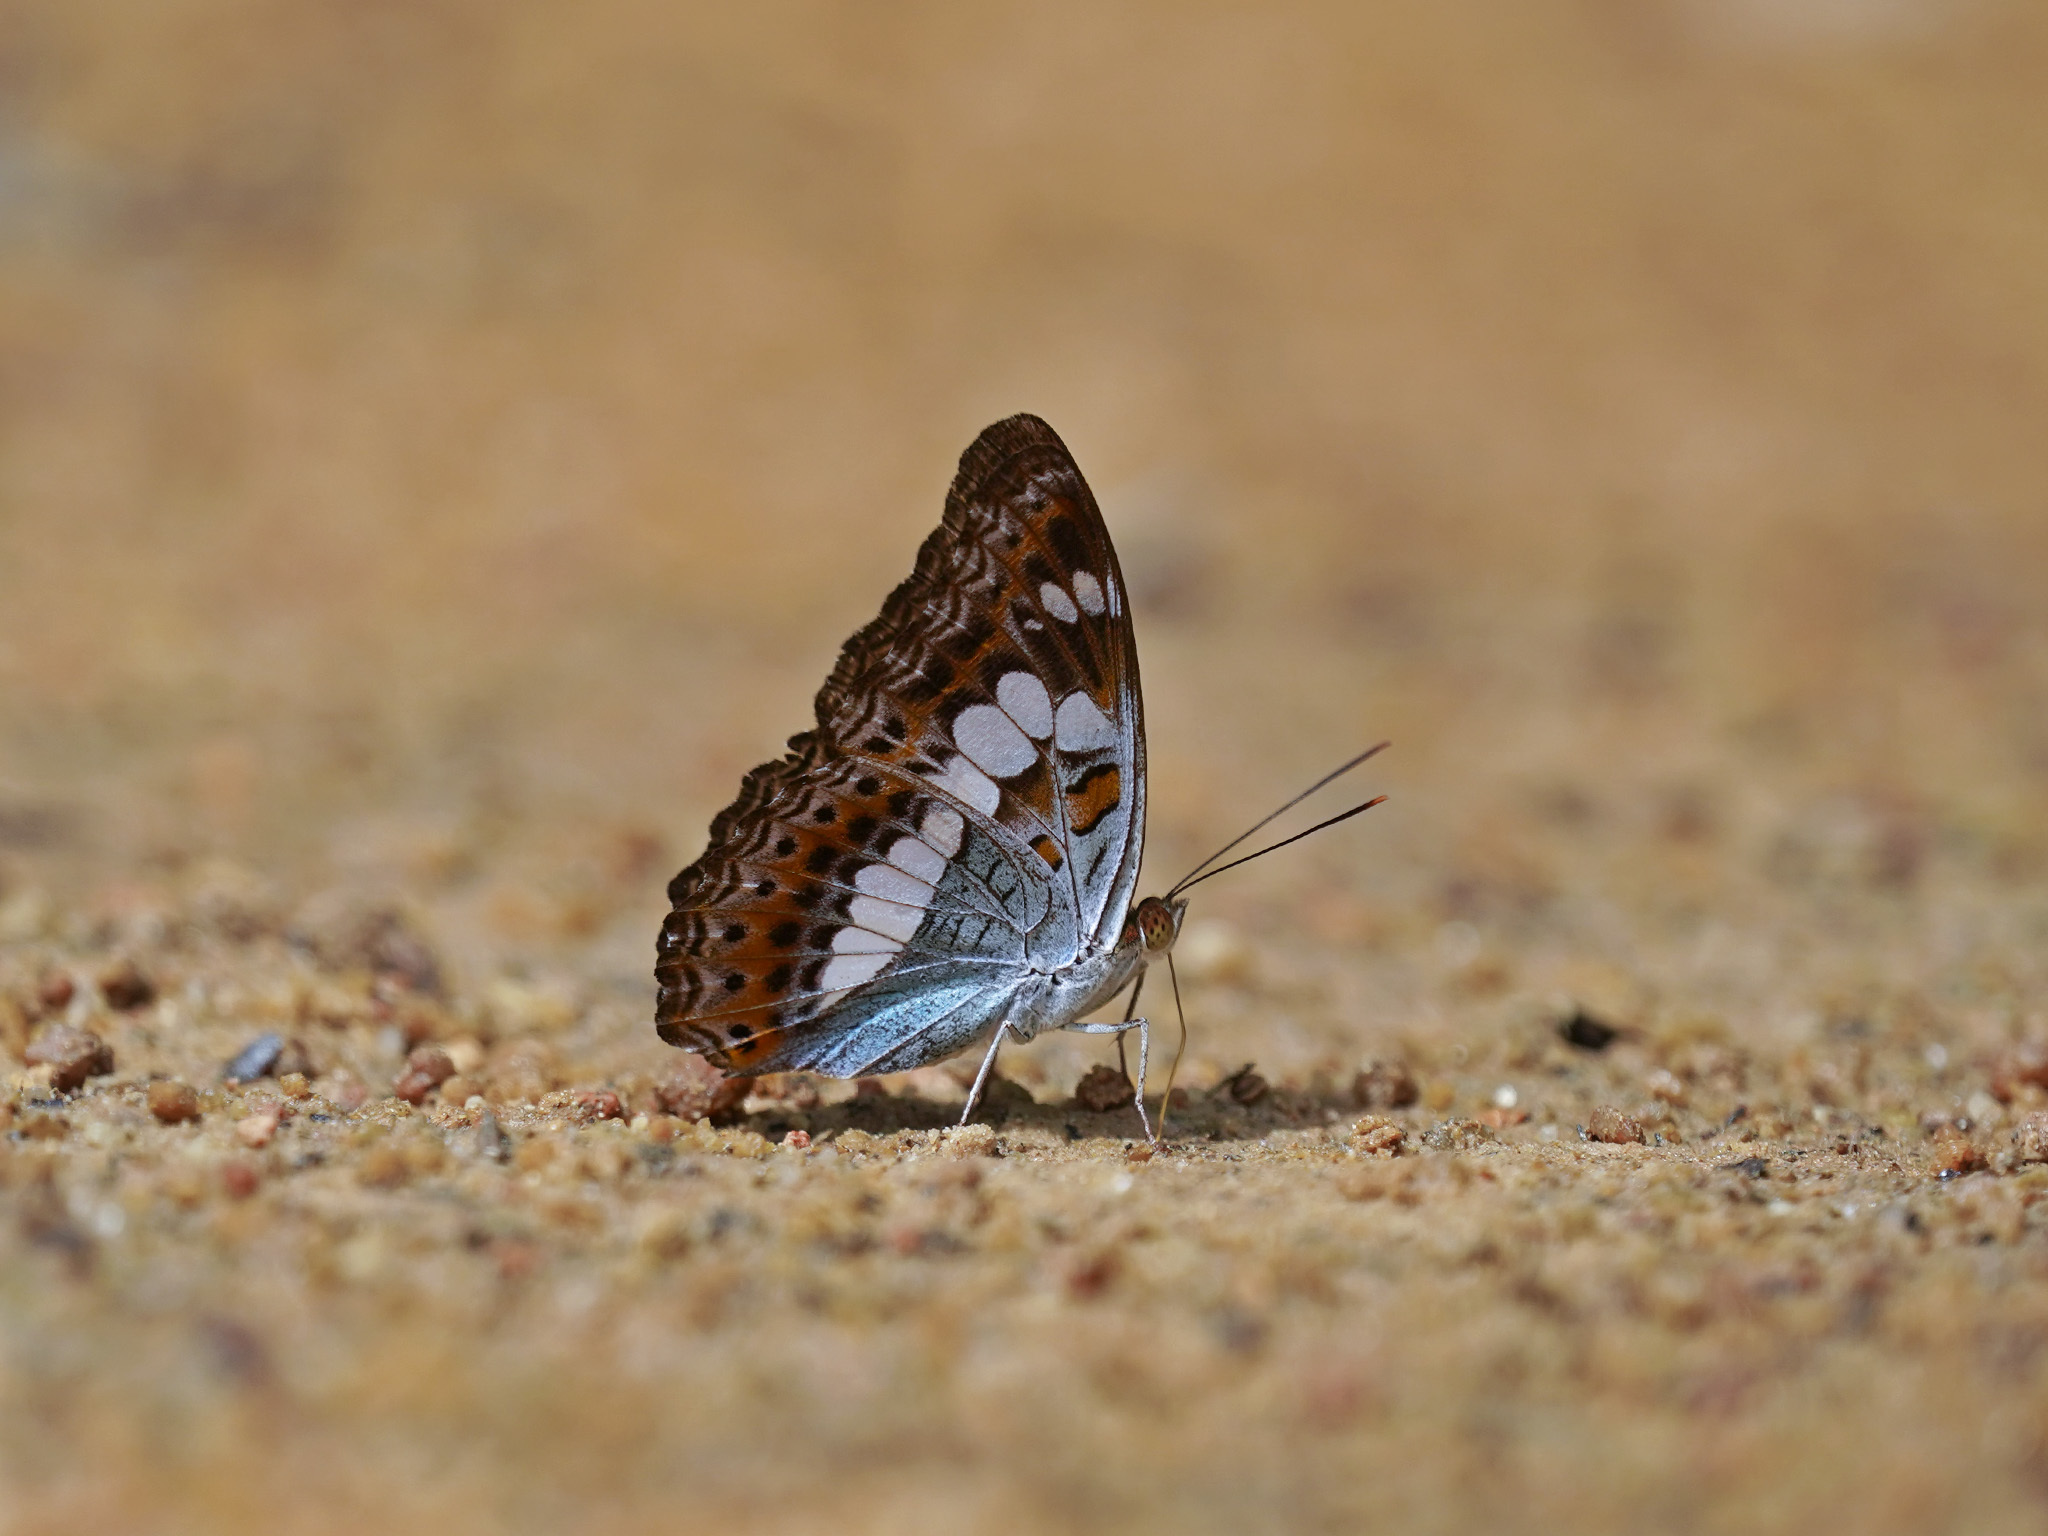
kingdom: Animalia
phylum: Arthropoda
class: Insecta
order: Lepidoptera
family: Nymphalidae
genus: Limenitis
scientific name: Limenitis Moduza procris
